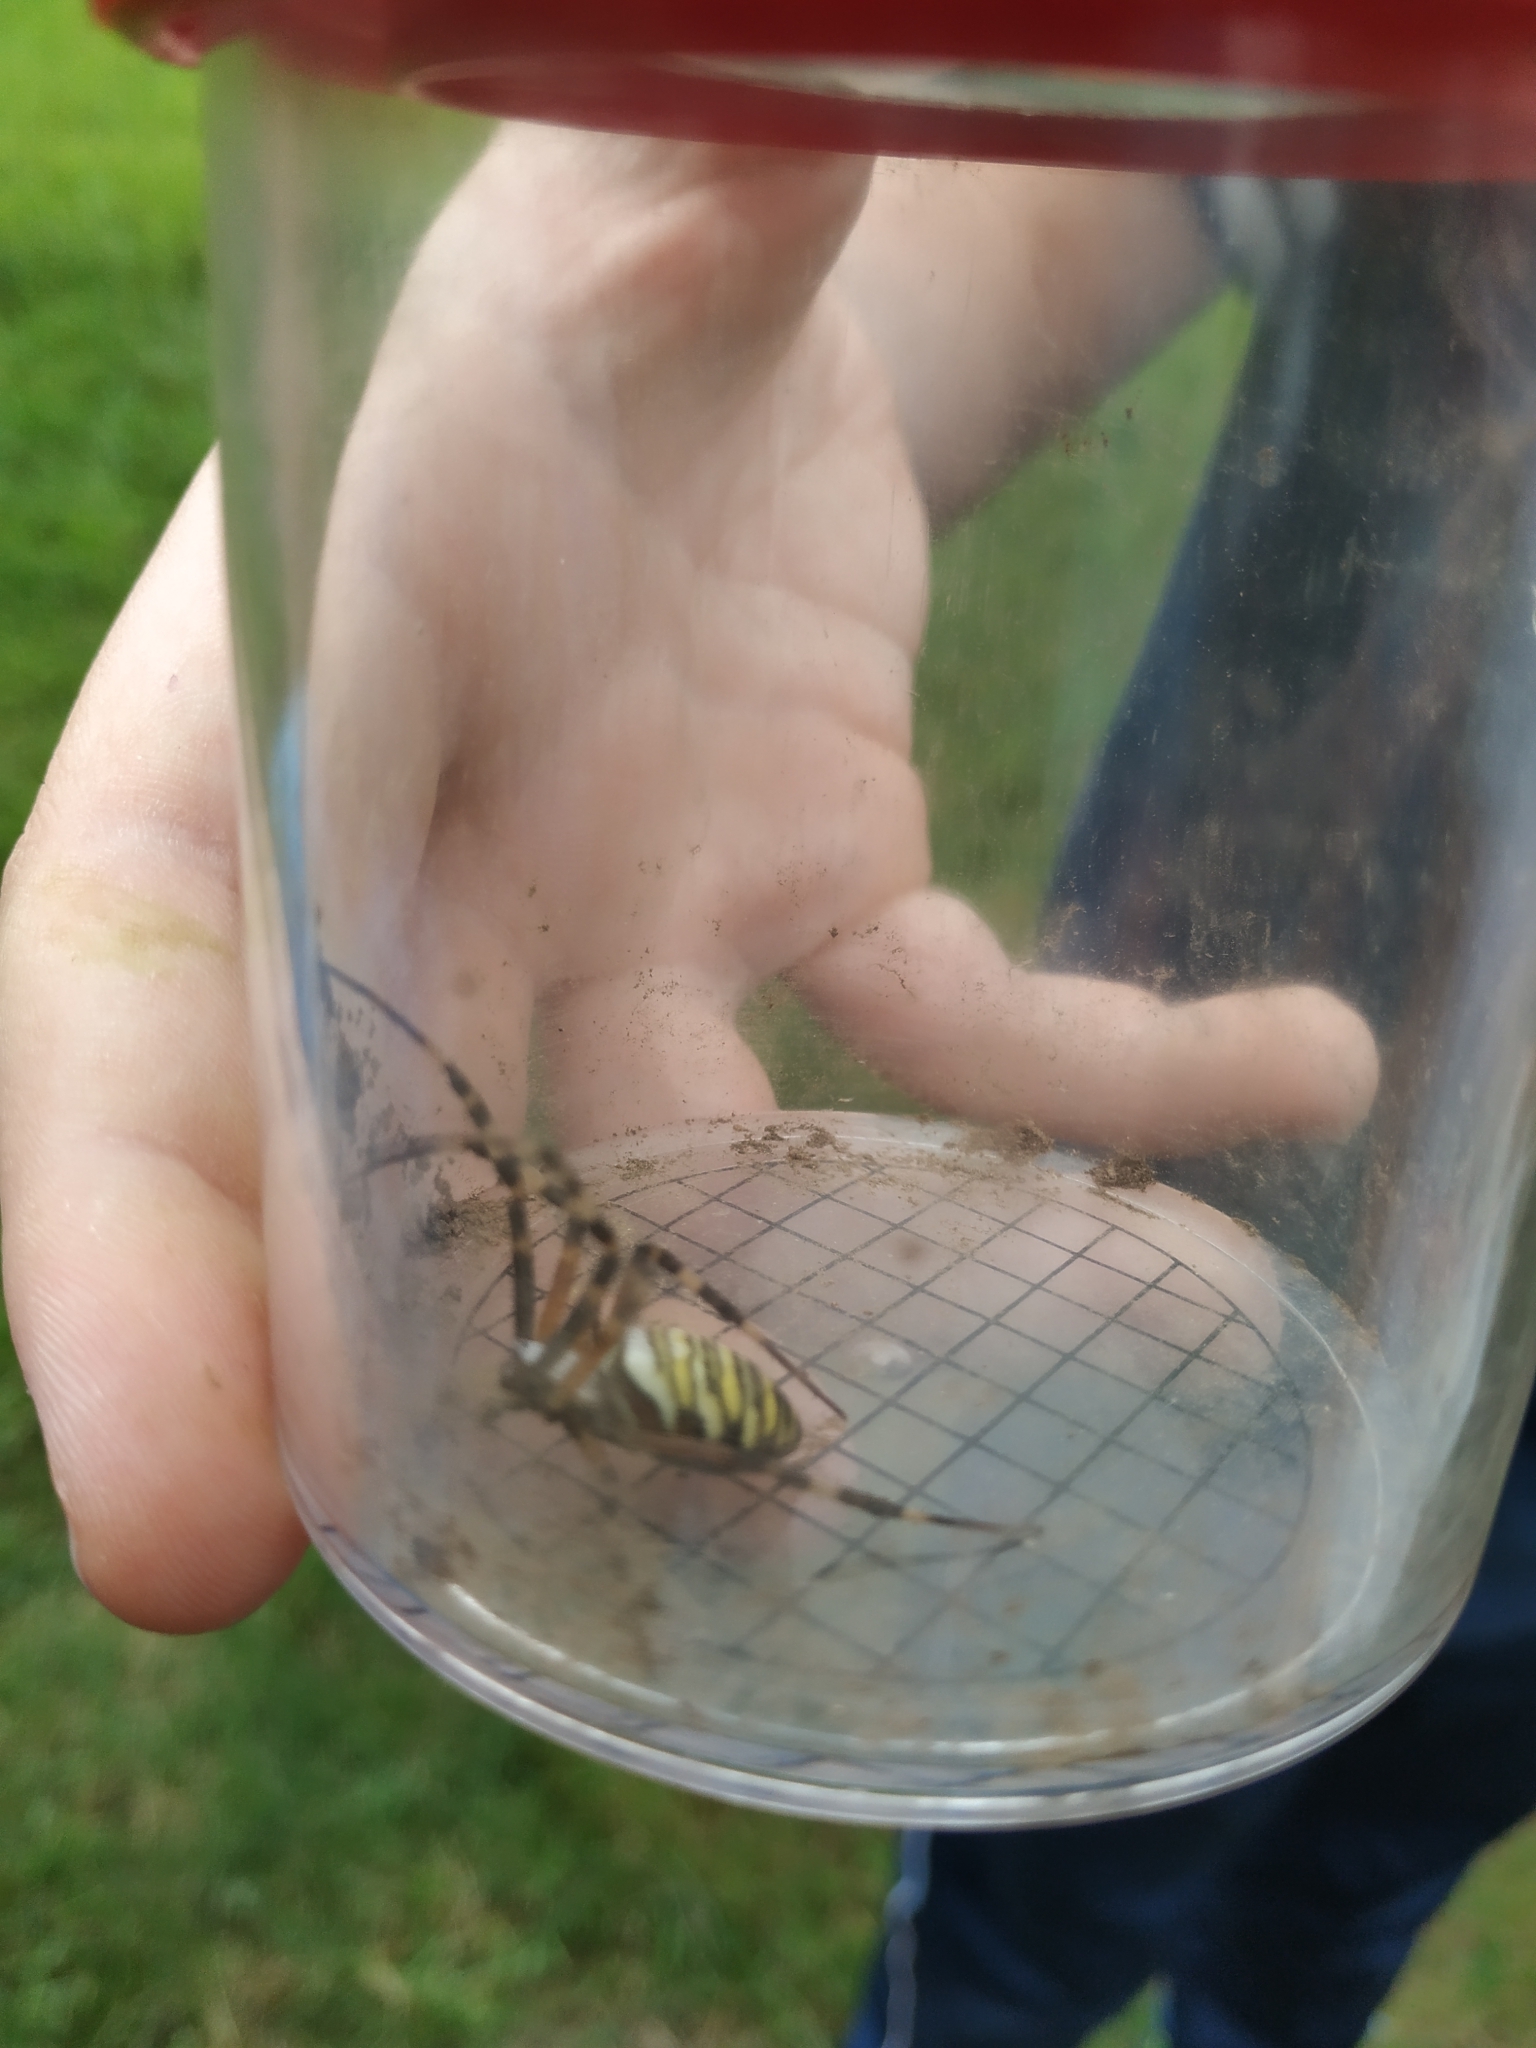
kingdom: Animalia
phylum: Arthropoda
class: Arachnida
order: Araneae
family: Araneidae
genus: Argiope
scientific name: Argiope bruennichi
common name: Wasp spider
